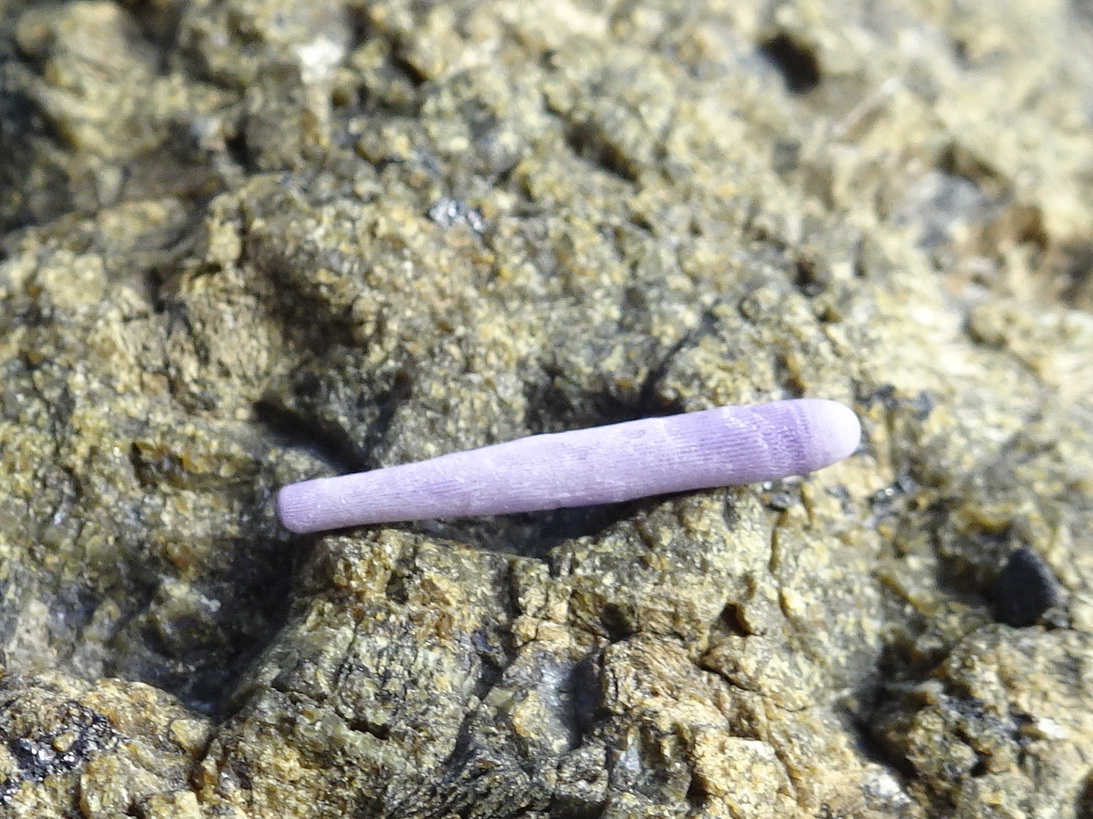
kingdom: Animalia
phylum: Echinodermata
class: Echinoidea
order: Camarodonta
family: Strongylocentrotidae
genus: Strongylocentrotus
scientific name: Strongylocentrotus purpuratus
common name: Purple sea urchin
